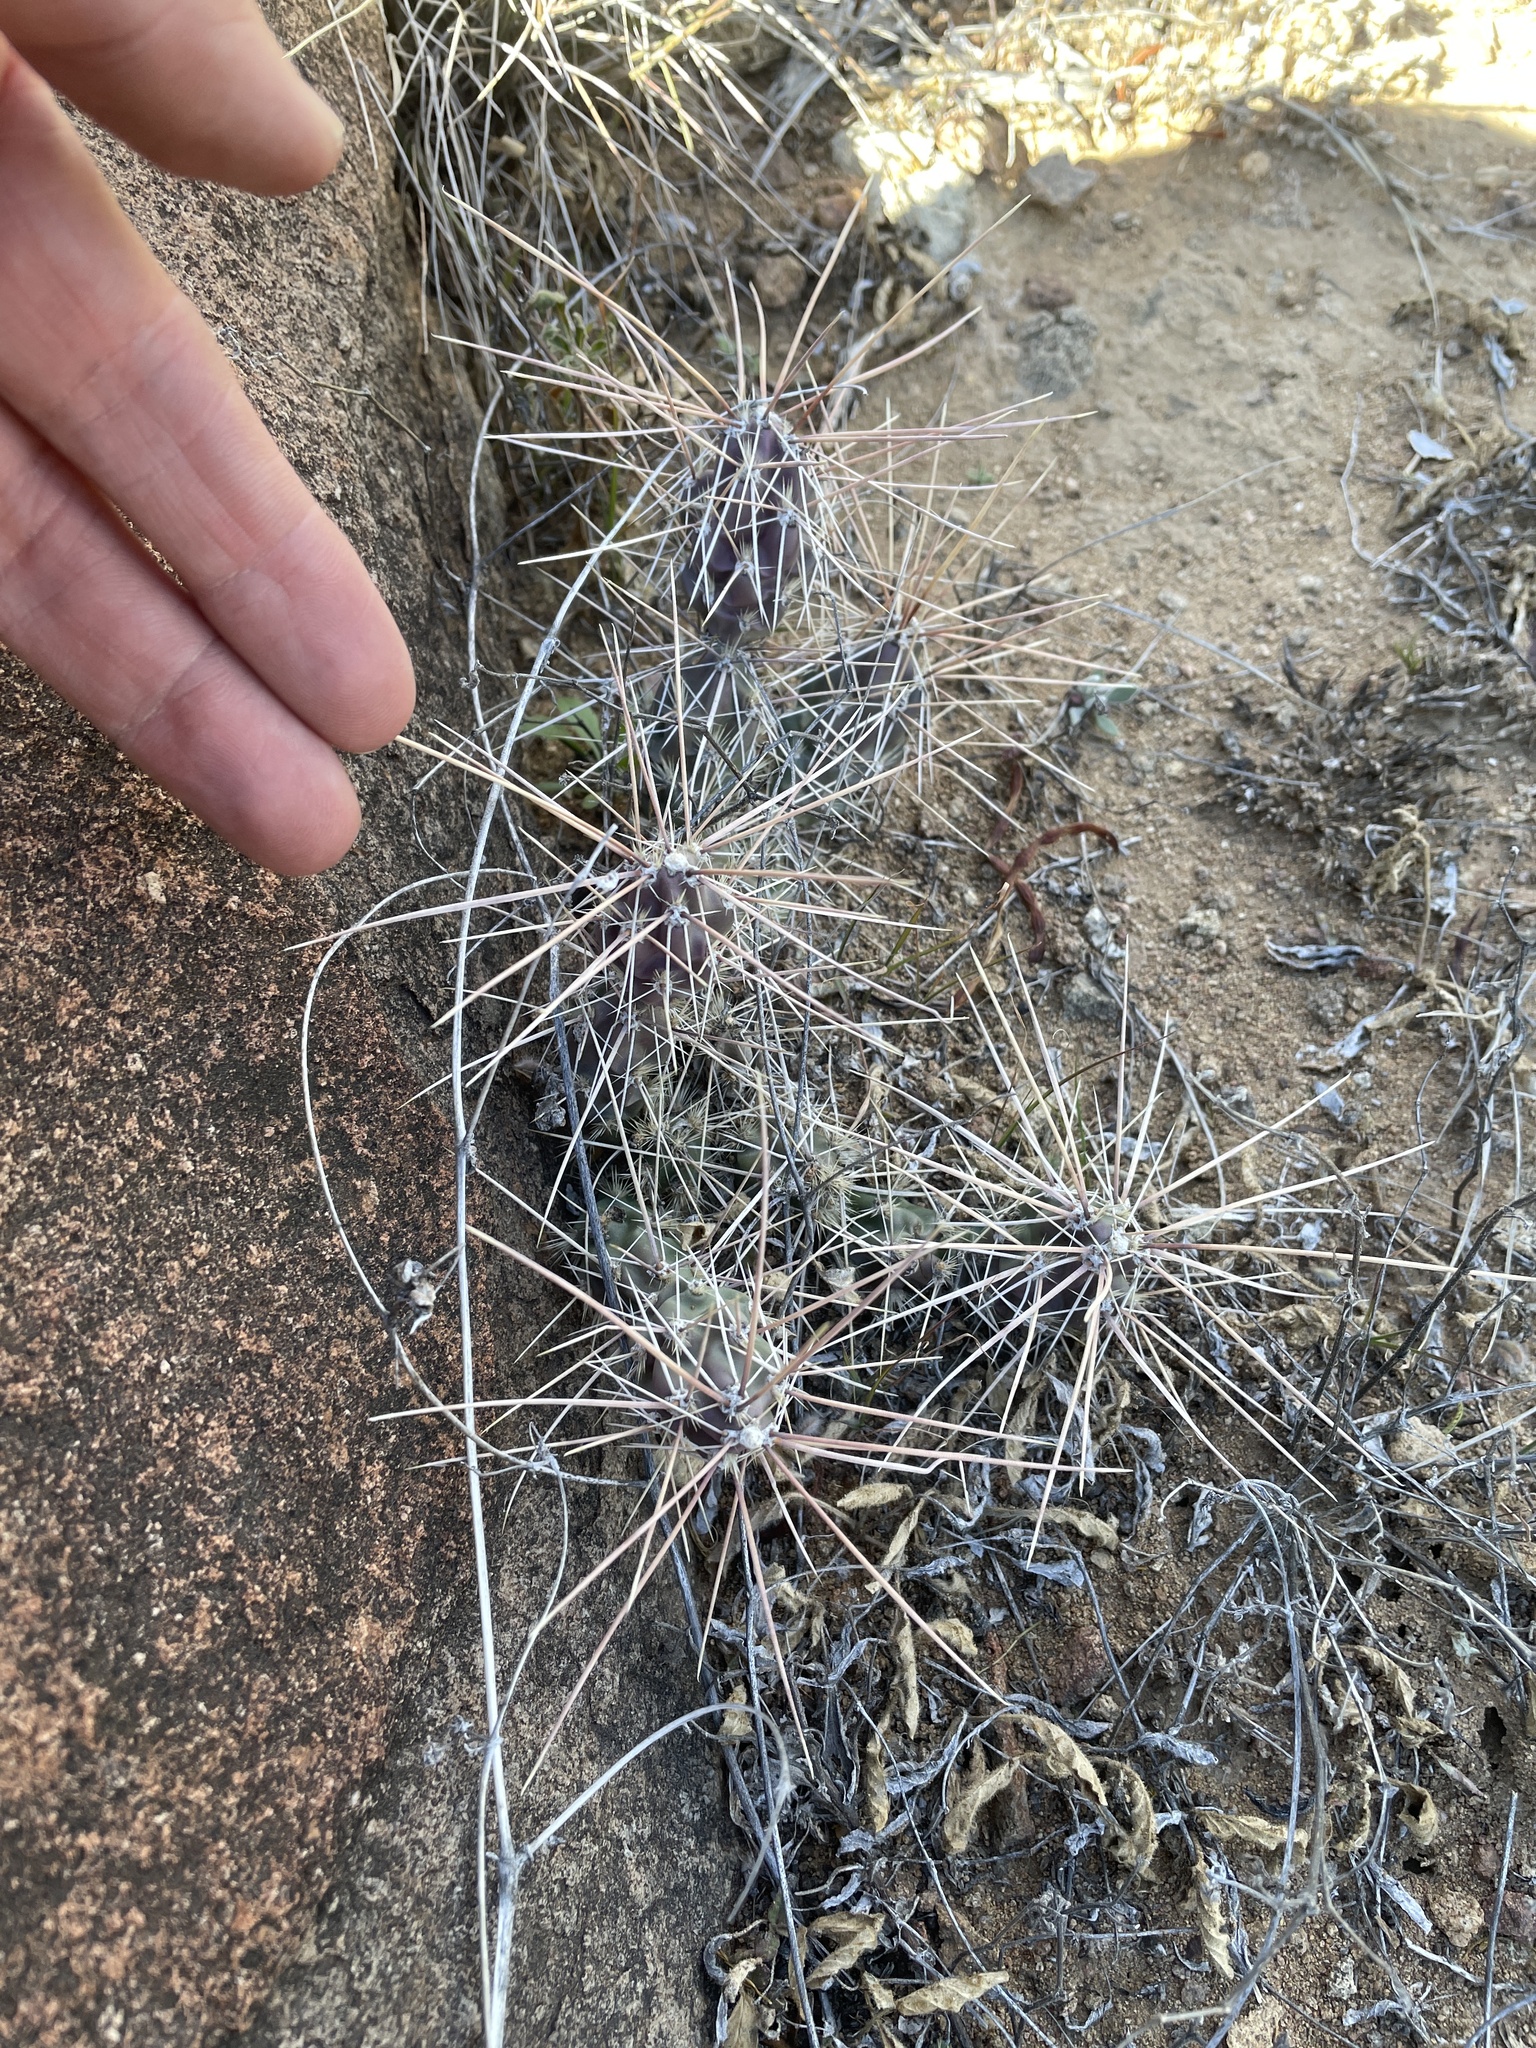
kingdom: Plantae
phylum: Tracheophyta
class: Magnoliopsida
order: Caryophyllales
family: Cactaceae
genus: Grusonia
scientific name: Grusonia grahamii
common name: Graham's club cactus
